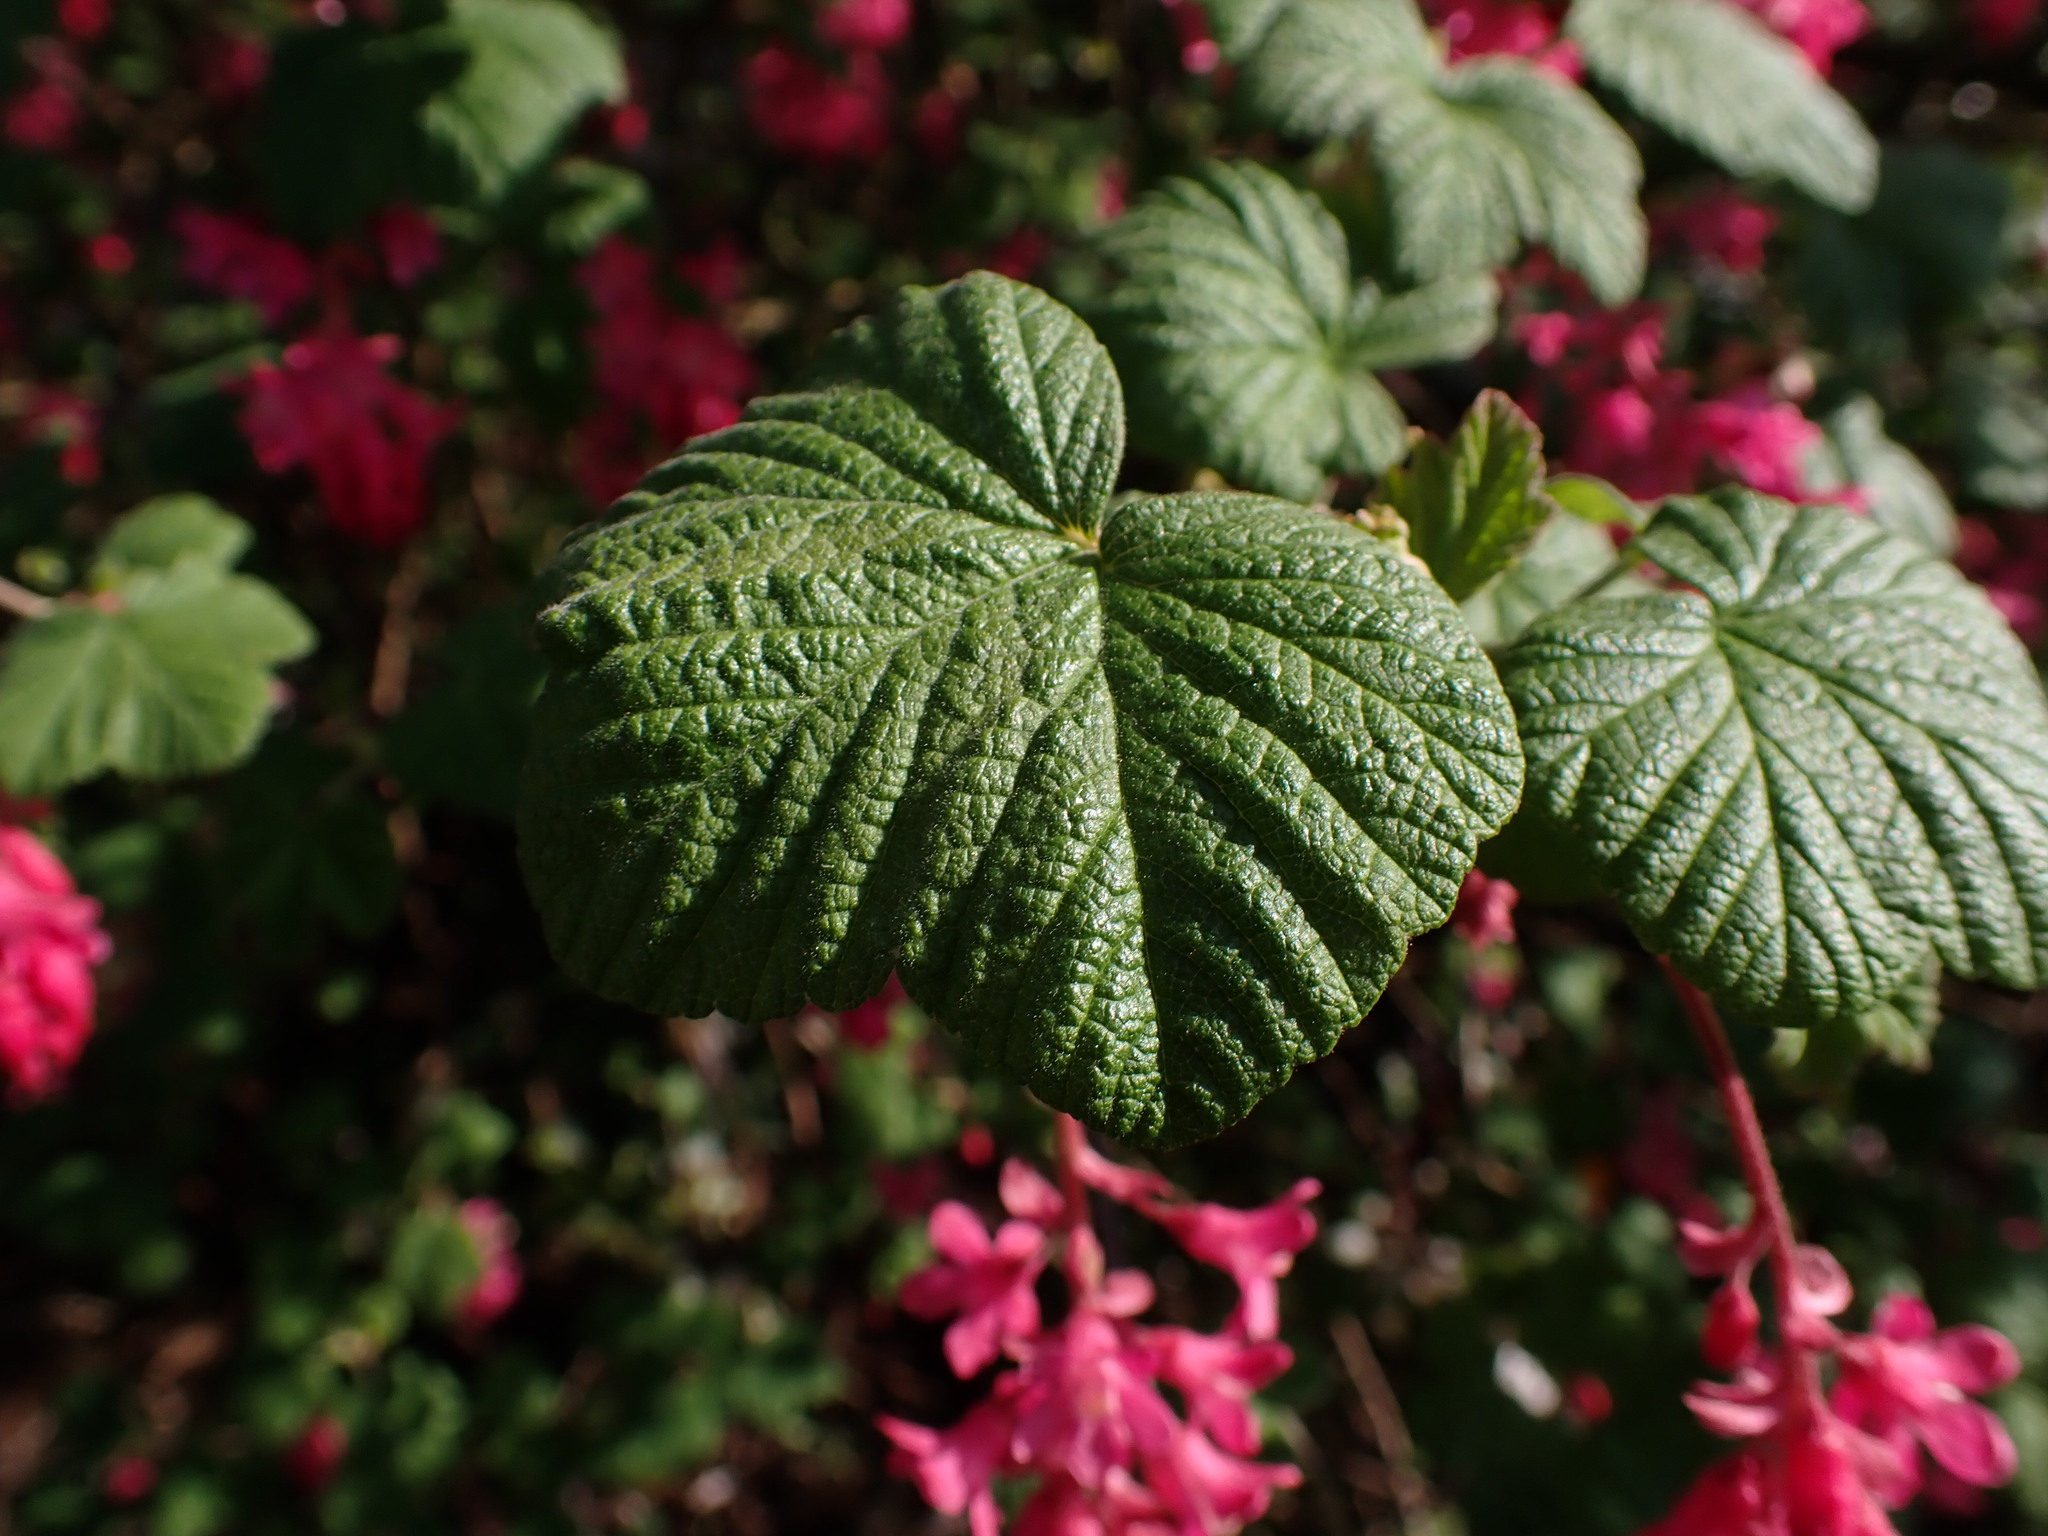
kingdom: Plantae
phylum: Tracheophyta
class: Magnoliopsida
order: Saxifragales
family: Grossulariaceae
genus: Ribes
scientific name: Ribes sanguineum
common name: Flowering currant
